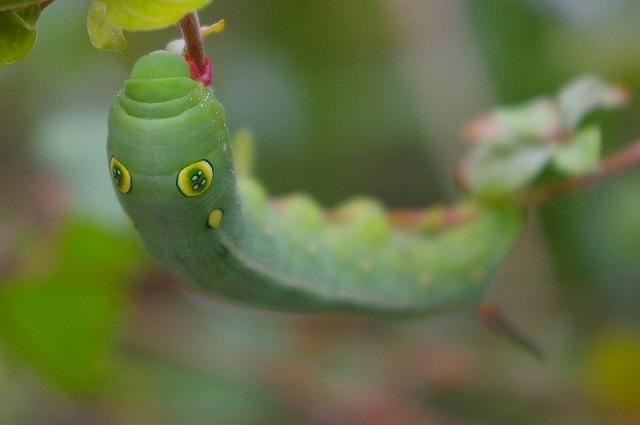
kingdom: Animalia
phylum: Arthropoda
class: Insecta
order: Lepidoptera
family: Sphingidae
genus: Hippotion
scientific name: Hippotion celerio
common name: Silver-striped hawk-moth
